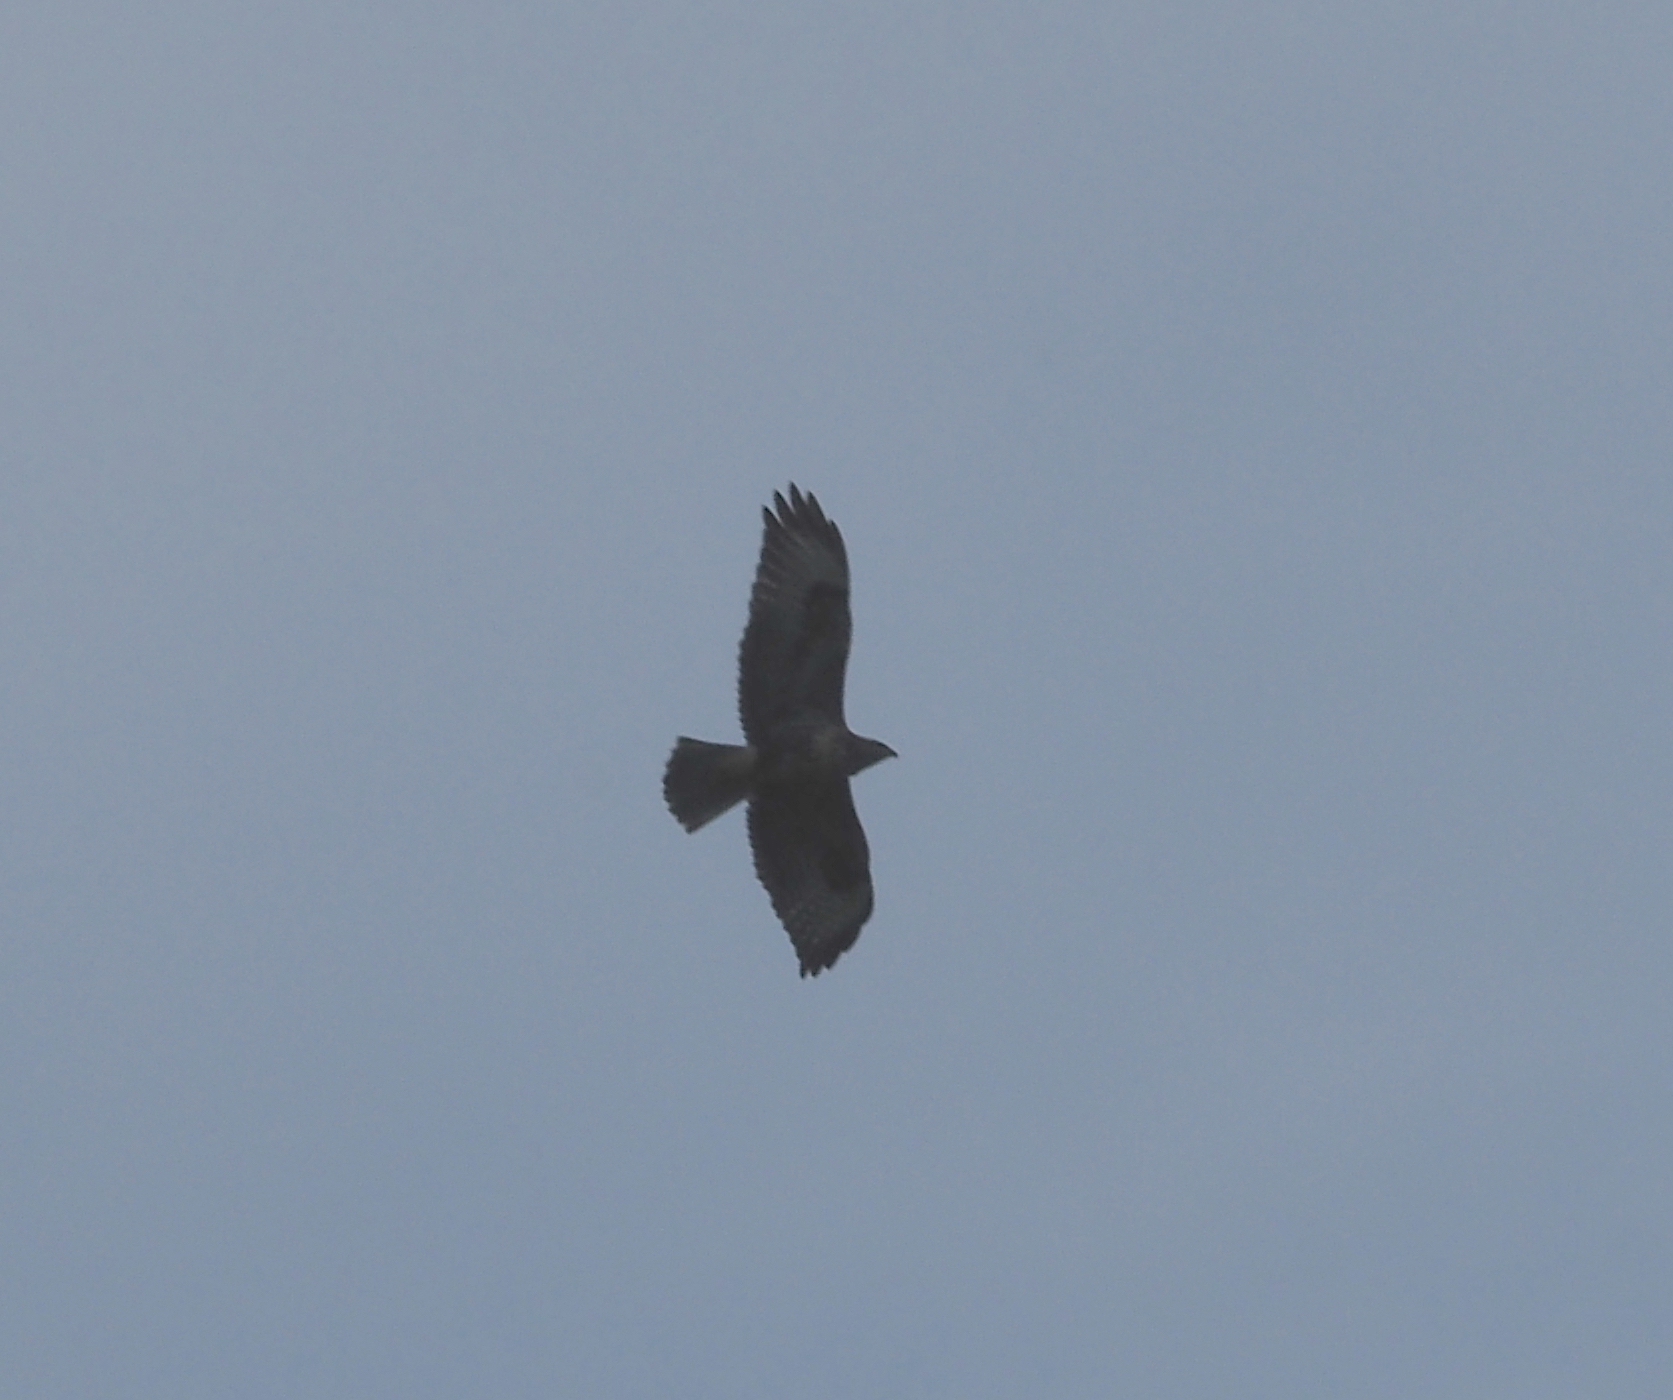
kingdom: Animalia
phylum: Chordata
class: Aves
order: Accipitriformes
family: Accipitridae
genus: Buteo
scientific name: Buteo buteo
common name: Common buzzard
